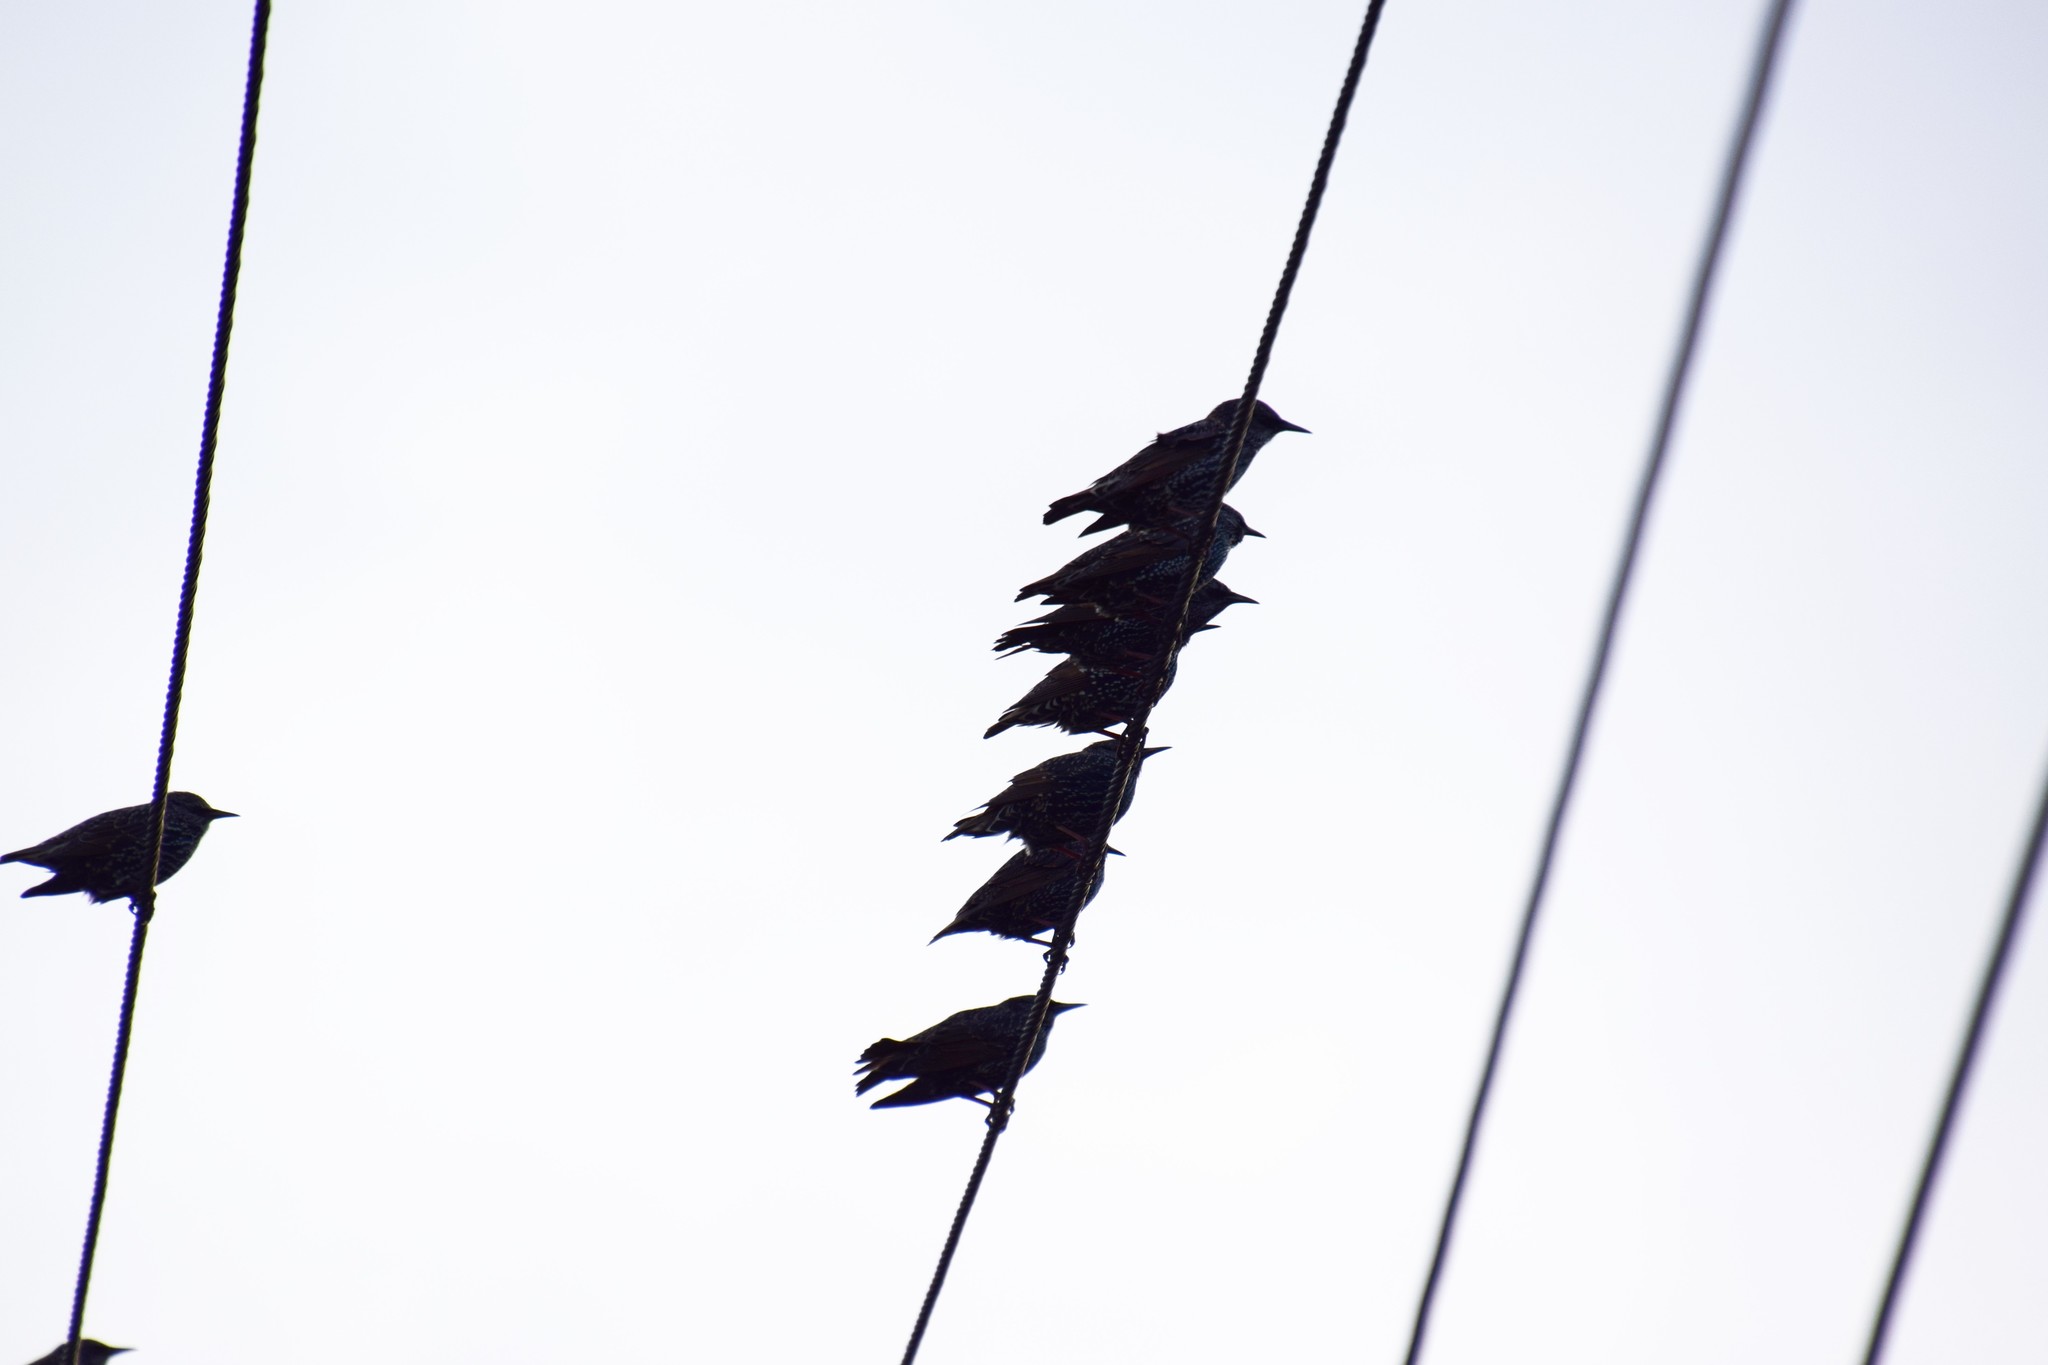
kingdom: Animalia
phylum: Chordata
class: Aves
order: Passeriformes
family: Sturnidae
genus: Sturnus
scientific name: Sturnus vulgaris
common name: Common starling
